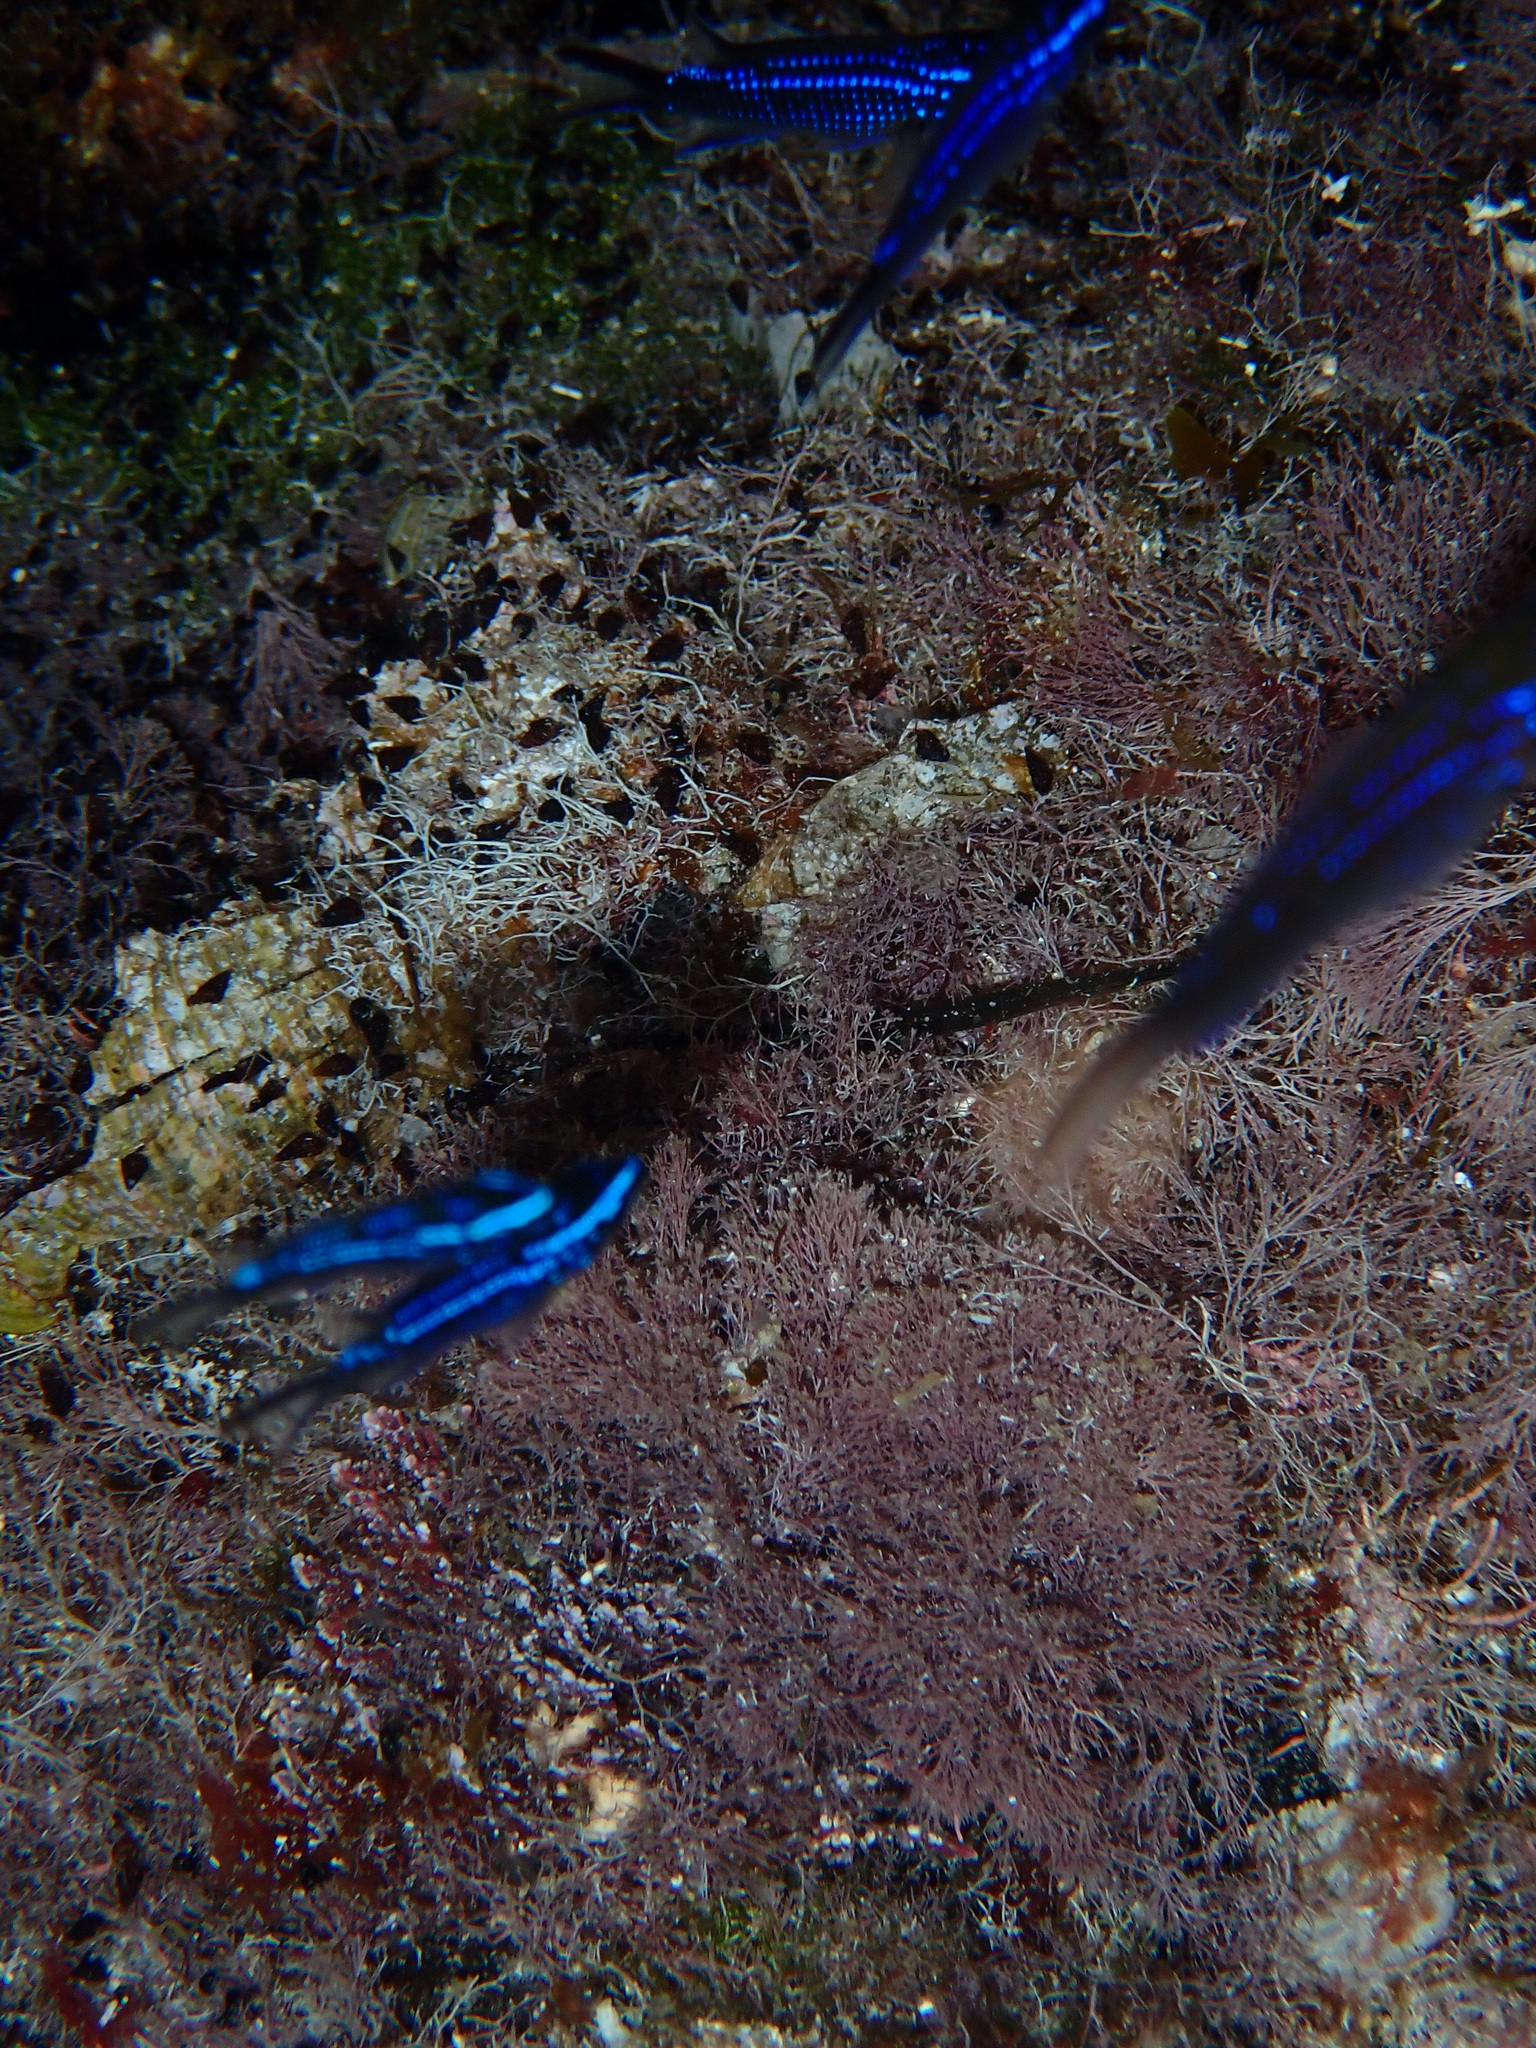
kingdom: Animalia
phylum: Chordata
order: Perciformes
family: Pomacentridae
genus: Chromis
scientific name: Chromis chromis
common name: Damselfish
